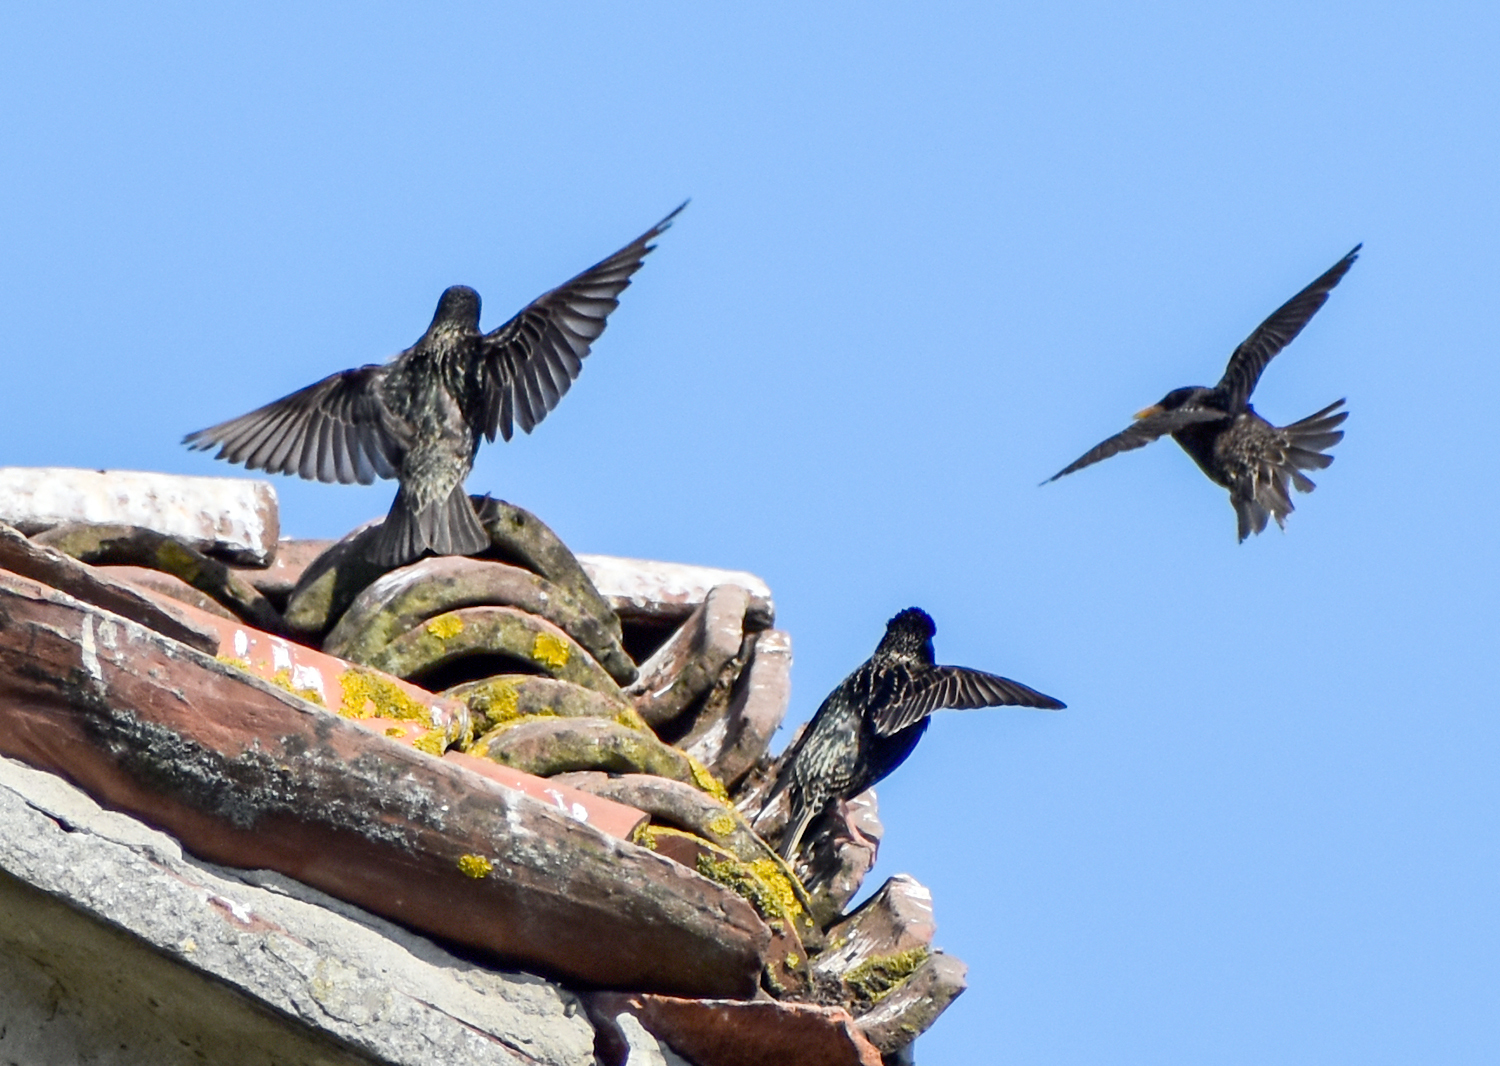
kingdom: Animalia
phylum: Chordata
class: Aves
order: Passeriformes
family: Sturnidae
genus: Sturnus
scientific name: Sturnus vulgaris
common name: Common starling
